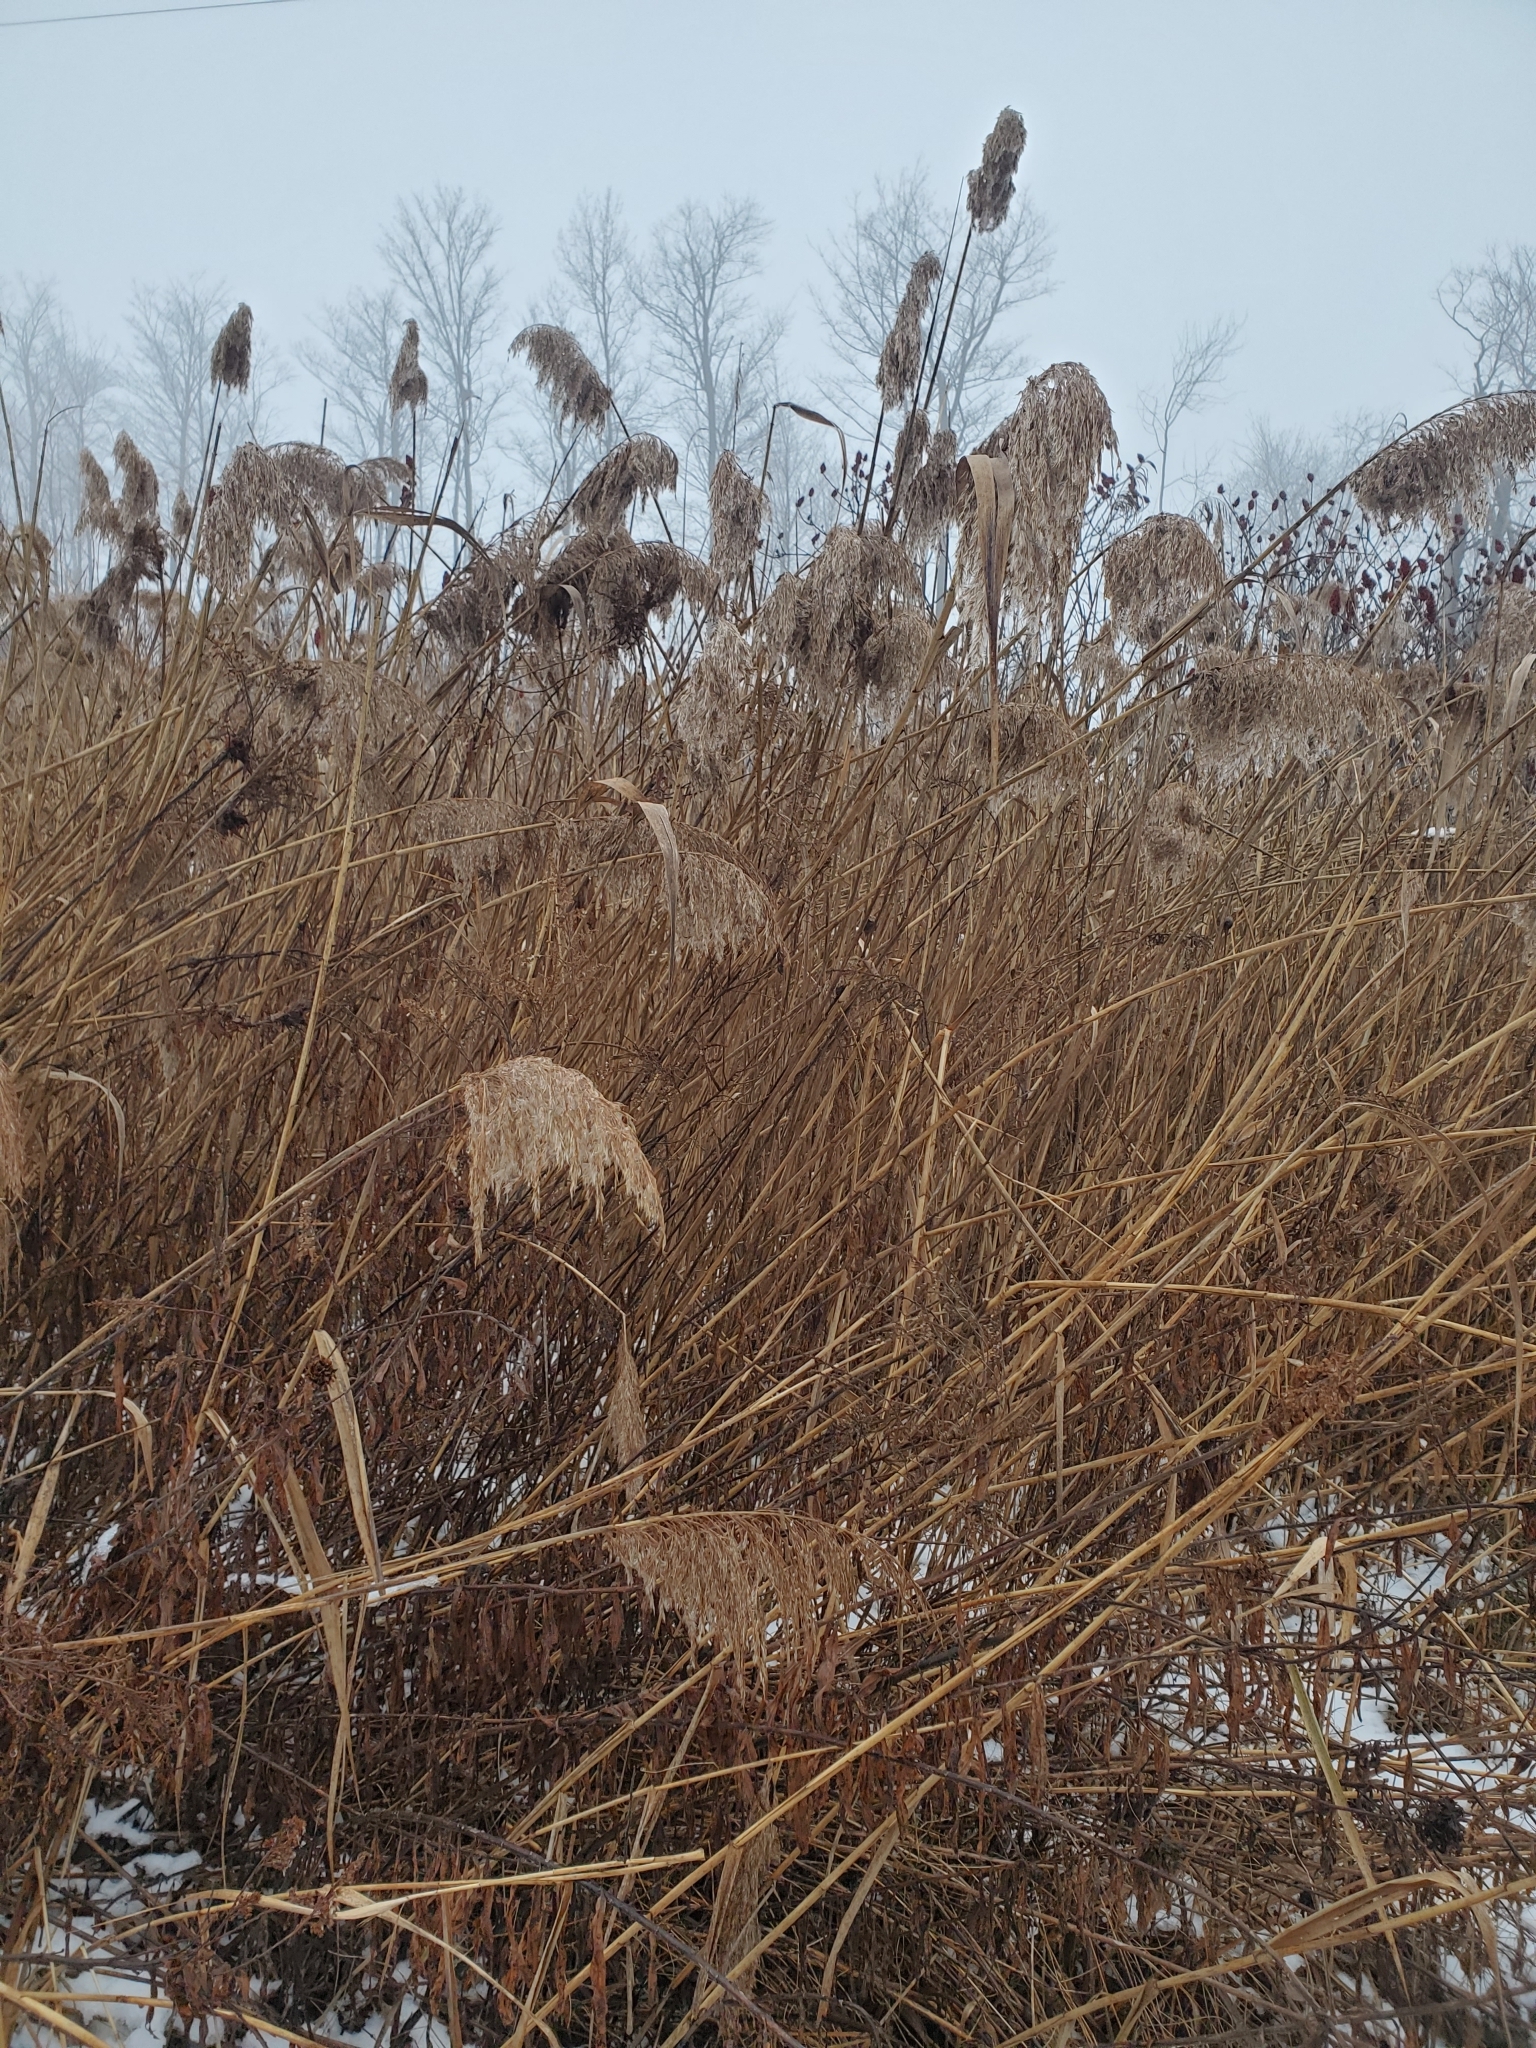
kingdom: Plantae
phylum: Tracheophyta
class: Liliopsida
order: Poales
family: Poaceae
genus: Phragmites
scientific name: Phragmites australis
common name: Common reed
